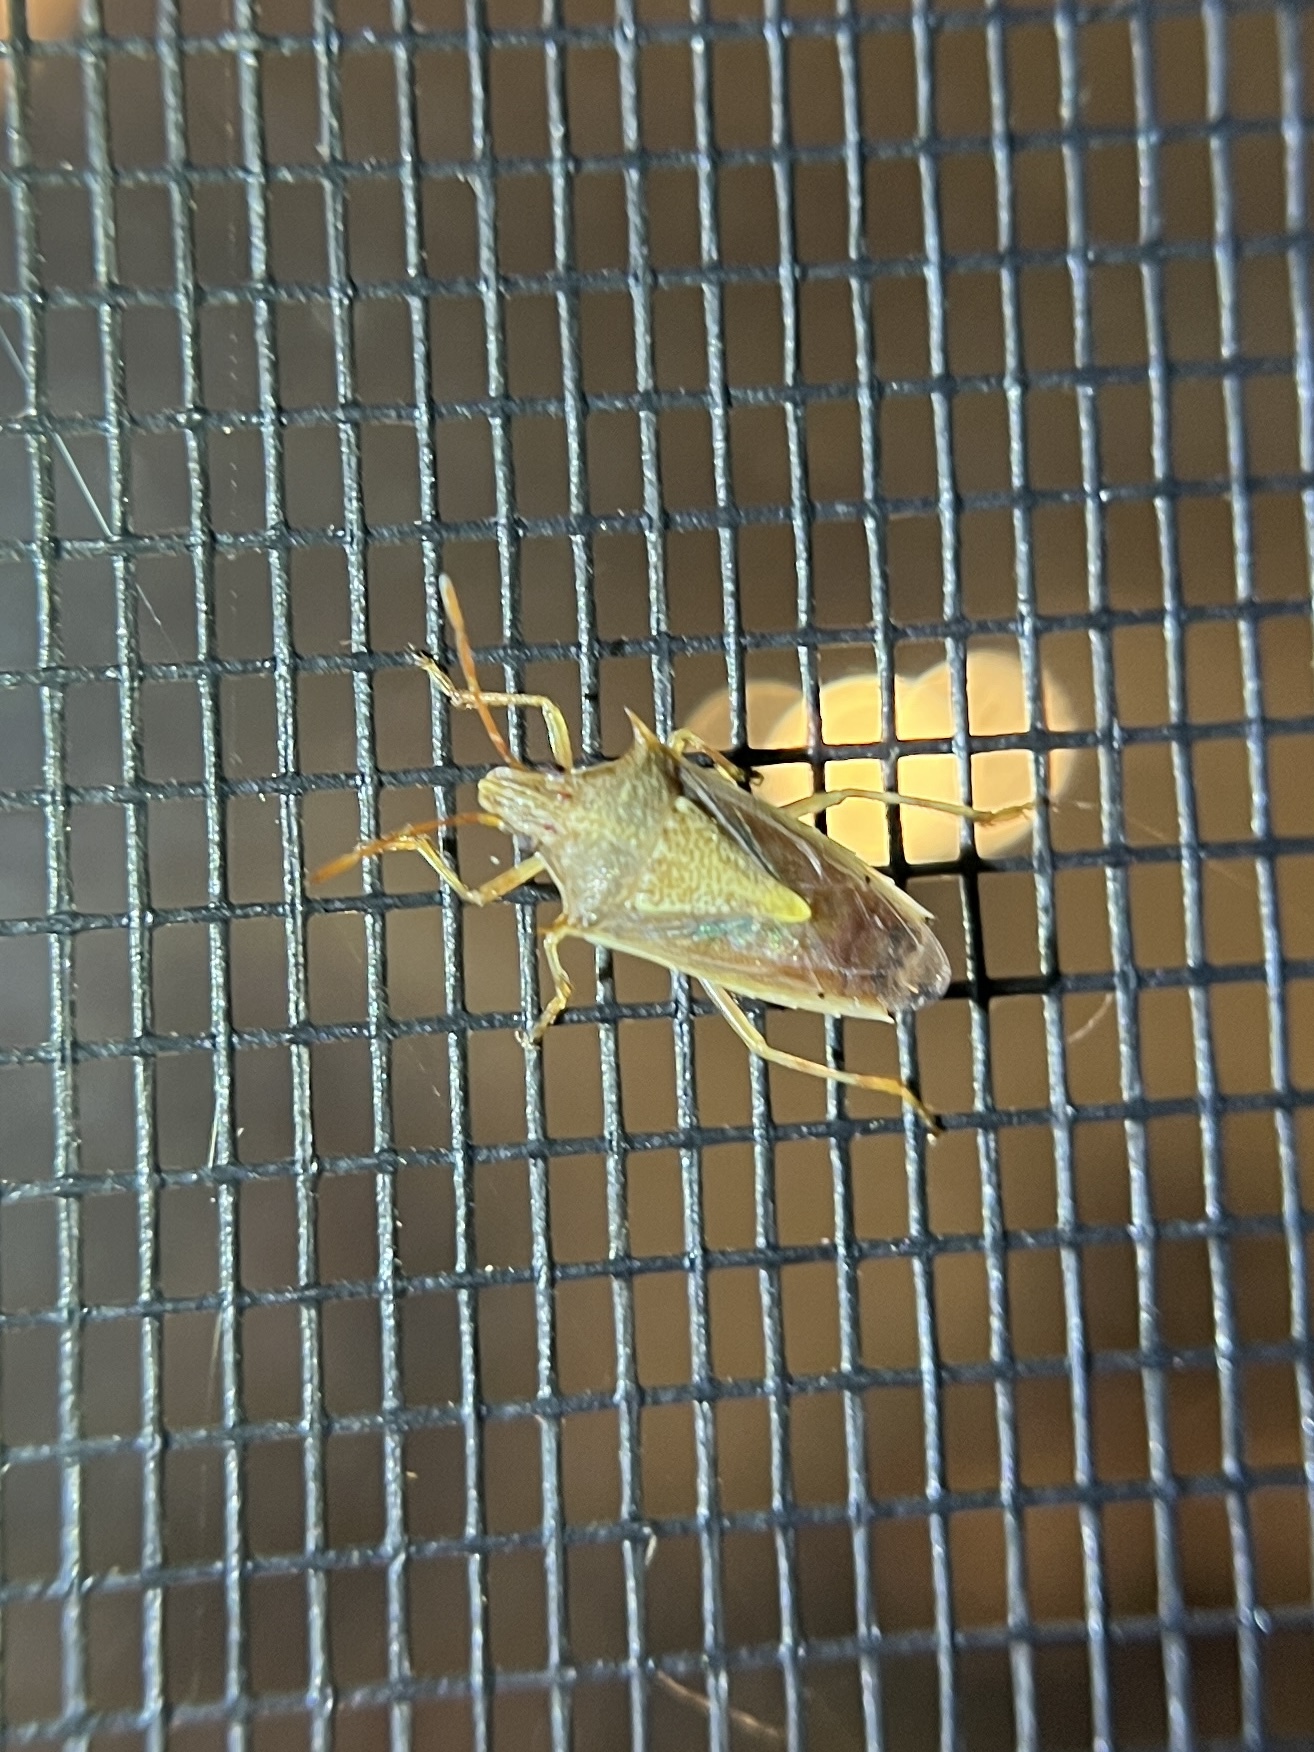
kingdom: Animalia
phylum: Arthropoda
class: Insecta
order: Hemiptera
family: Pentatomidae
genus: Oebalus
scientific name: Oebalus pugnax
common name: Rice stink bug
